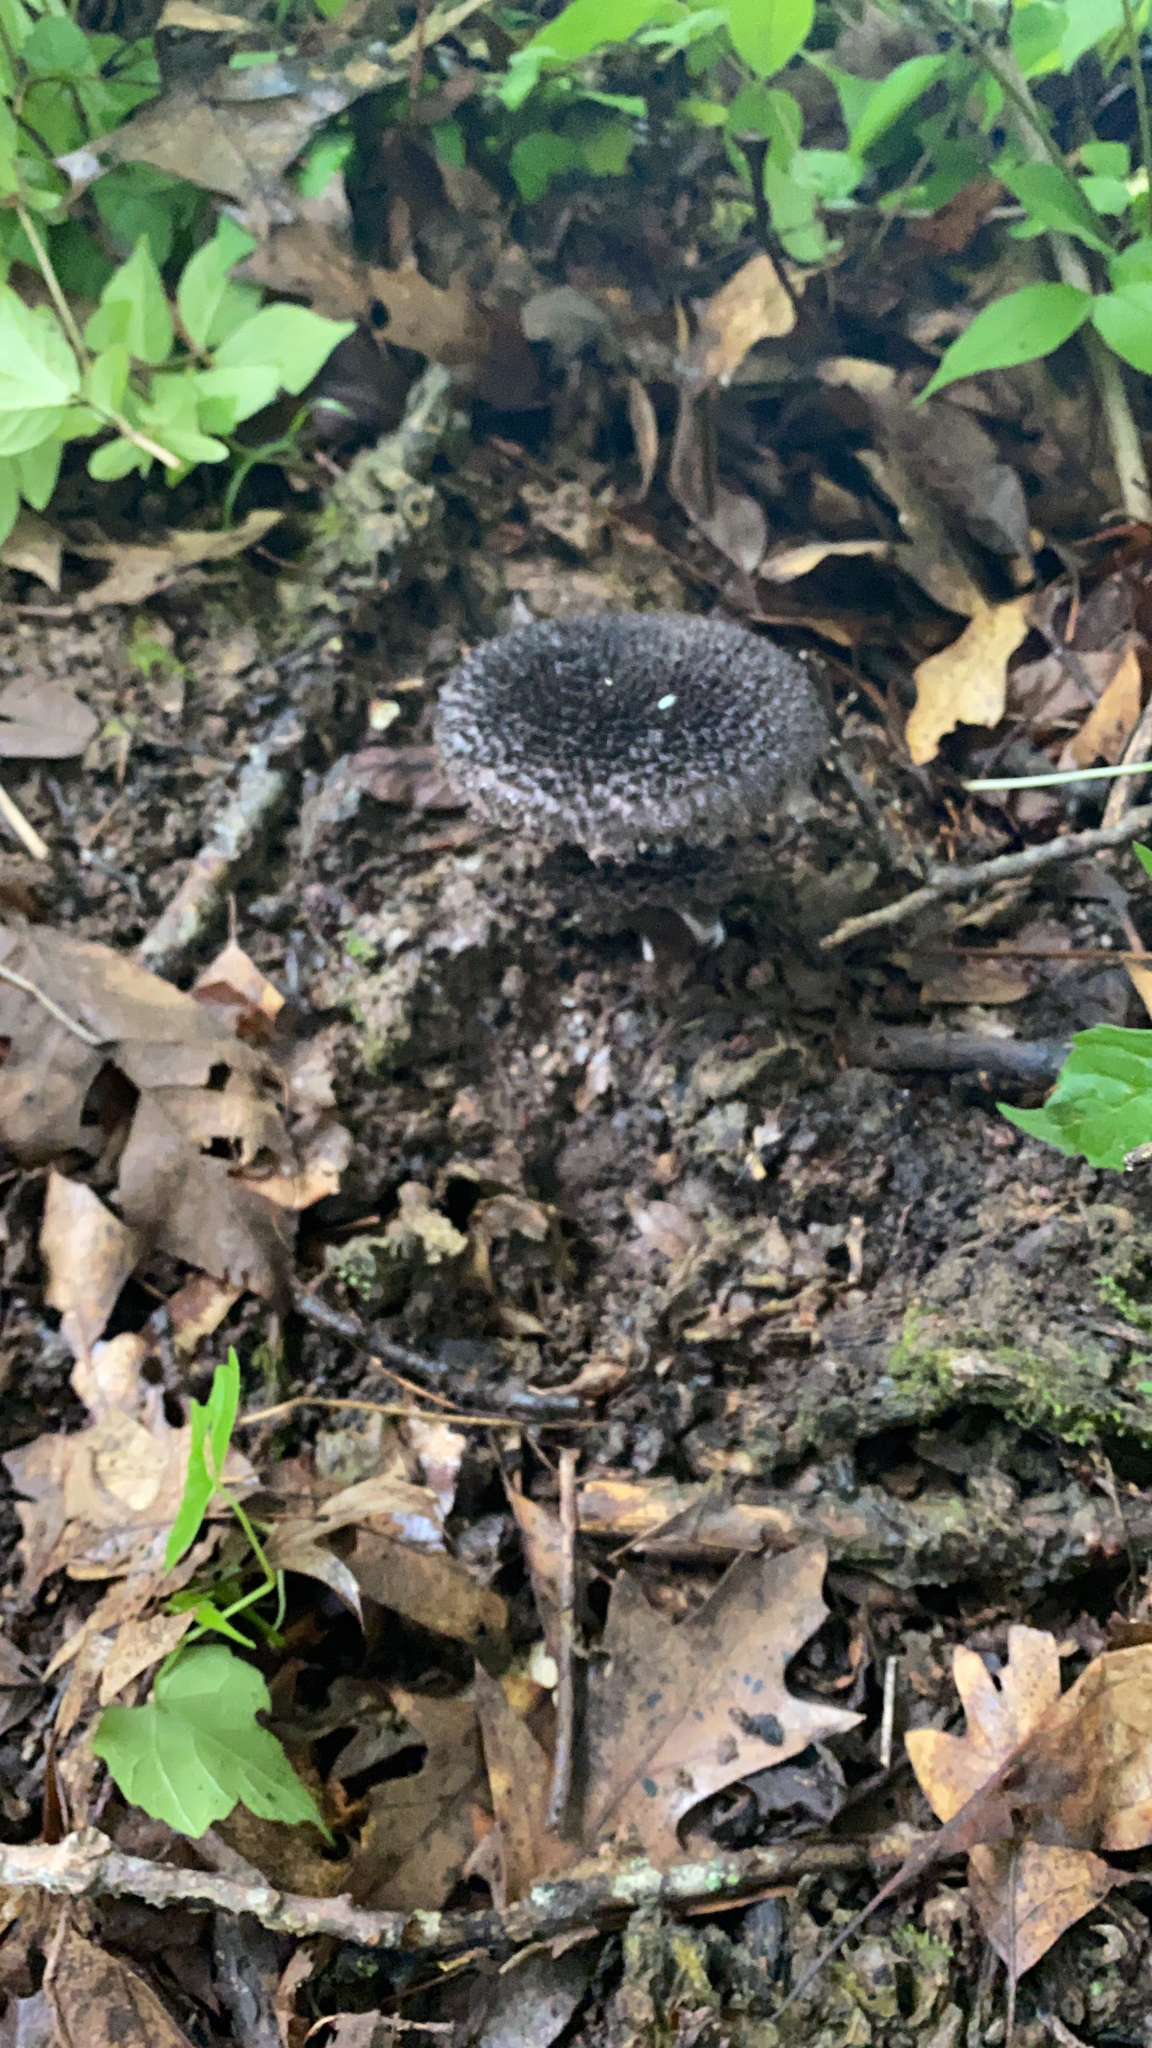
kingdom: Fungi
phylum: Basidiomycota
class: Agaricomycetes
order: Boletales
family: Boletaceae
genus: Strobilomyces
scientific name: Strobilomyces strobilaceus
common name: Old man of the woods
